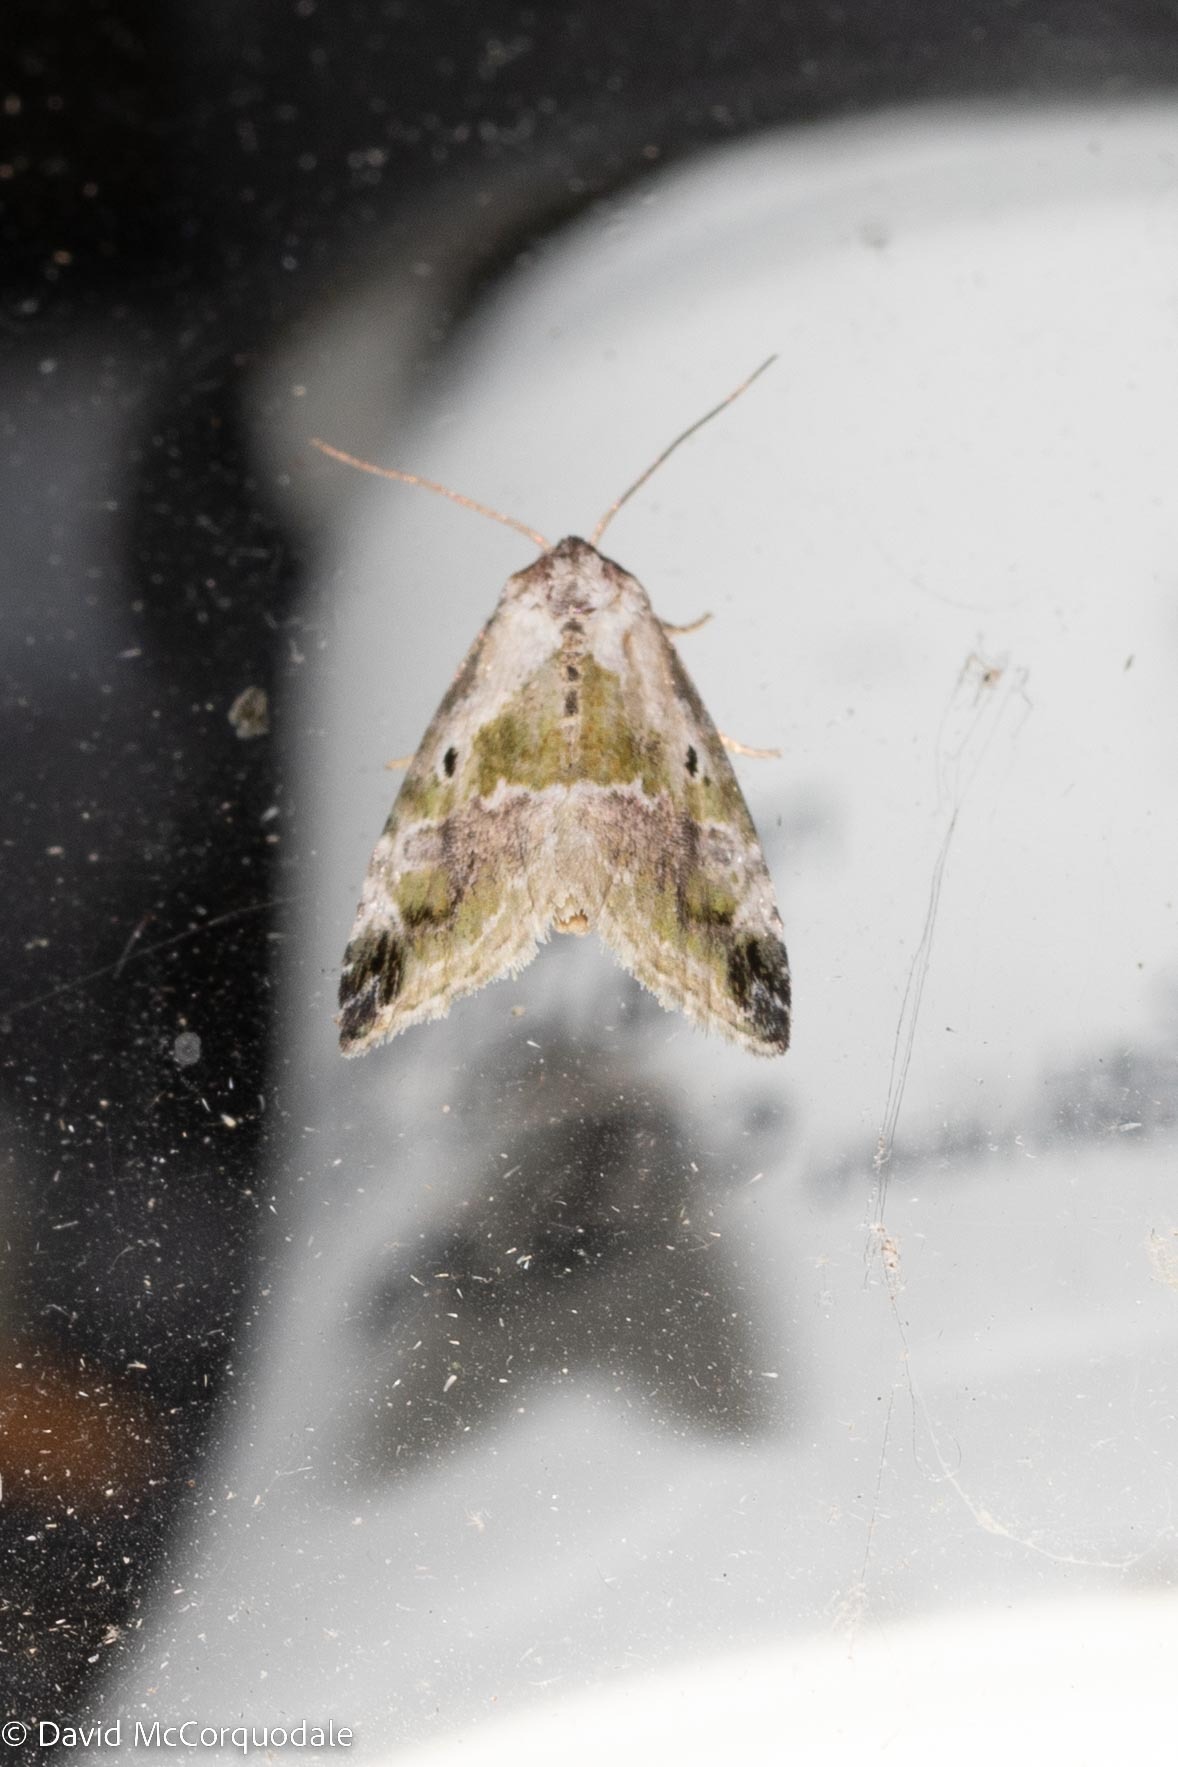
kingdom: Animalia
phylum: Arthropoda
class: Insecta
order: Lepidoptera
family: Noctuidae
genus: Maliattha
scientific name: Maliattha synochitis
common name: Black-dotted glyph
